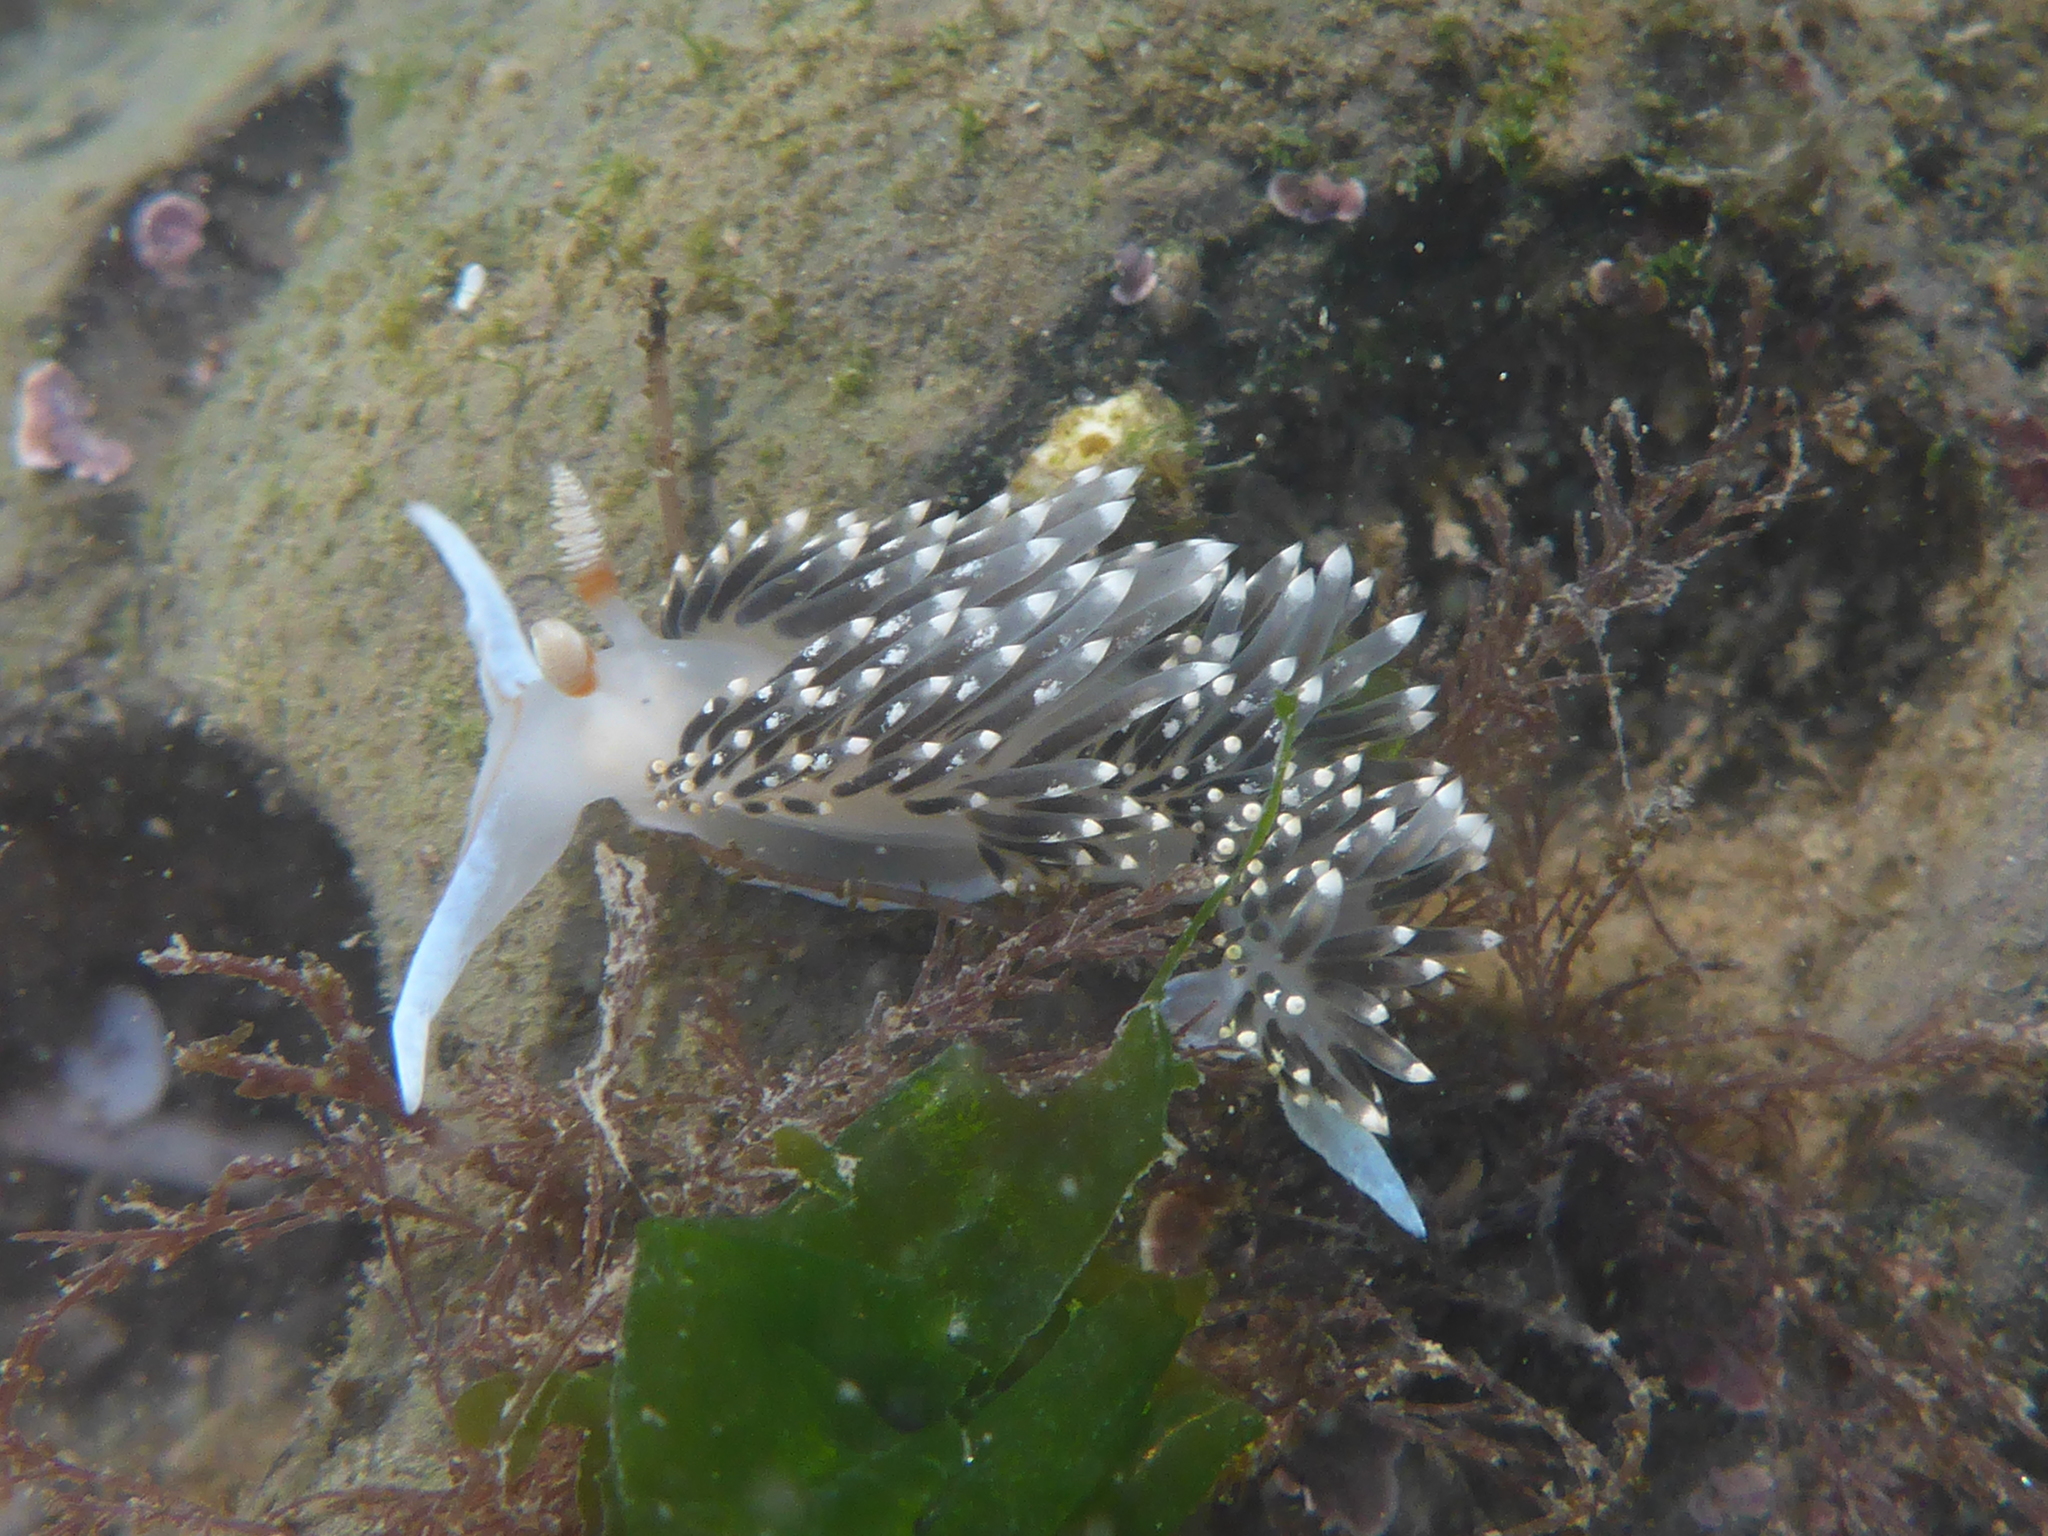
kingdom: Animalia
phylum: Mollusca
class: Gastropoda
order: Nudibranchia
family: Facelinidae
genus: Phidiana
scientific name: Phidiana hiltoni
